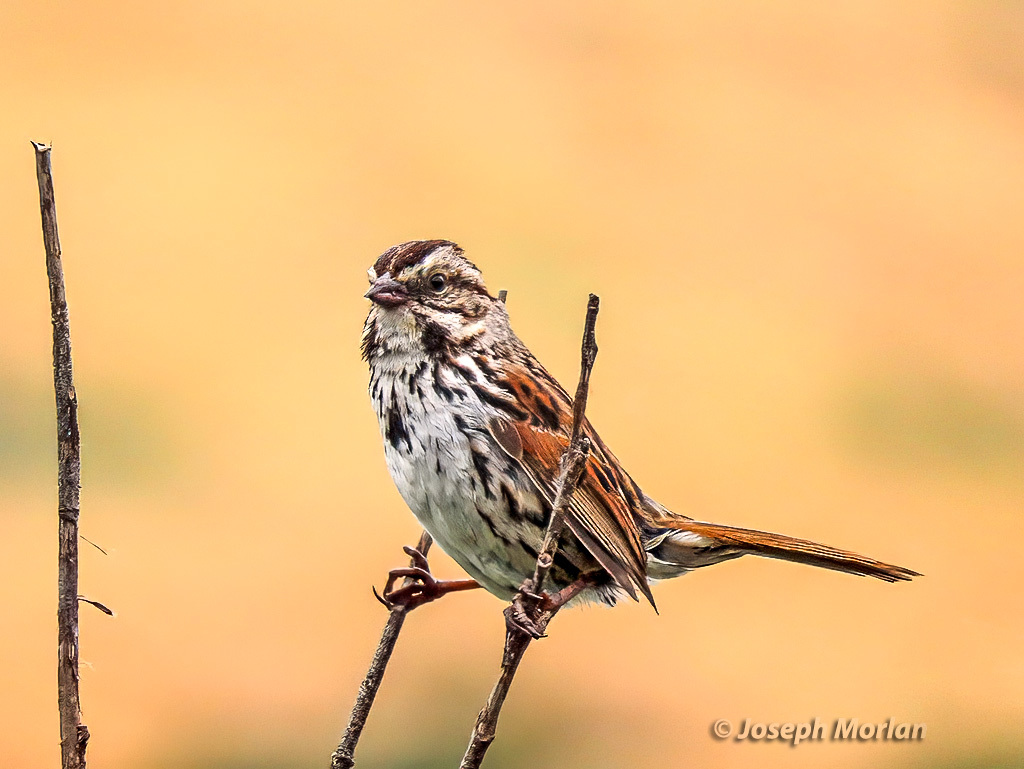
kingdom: Animalia
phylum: Chordata
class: Aves
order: Passeriformes
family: Passerellidae
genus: Melospiza
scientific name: Melospiza melodia
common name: Song sparrow
